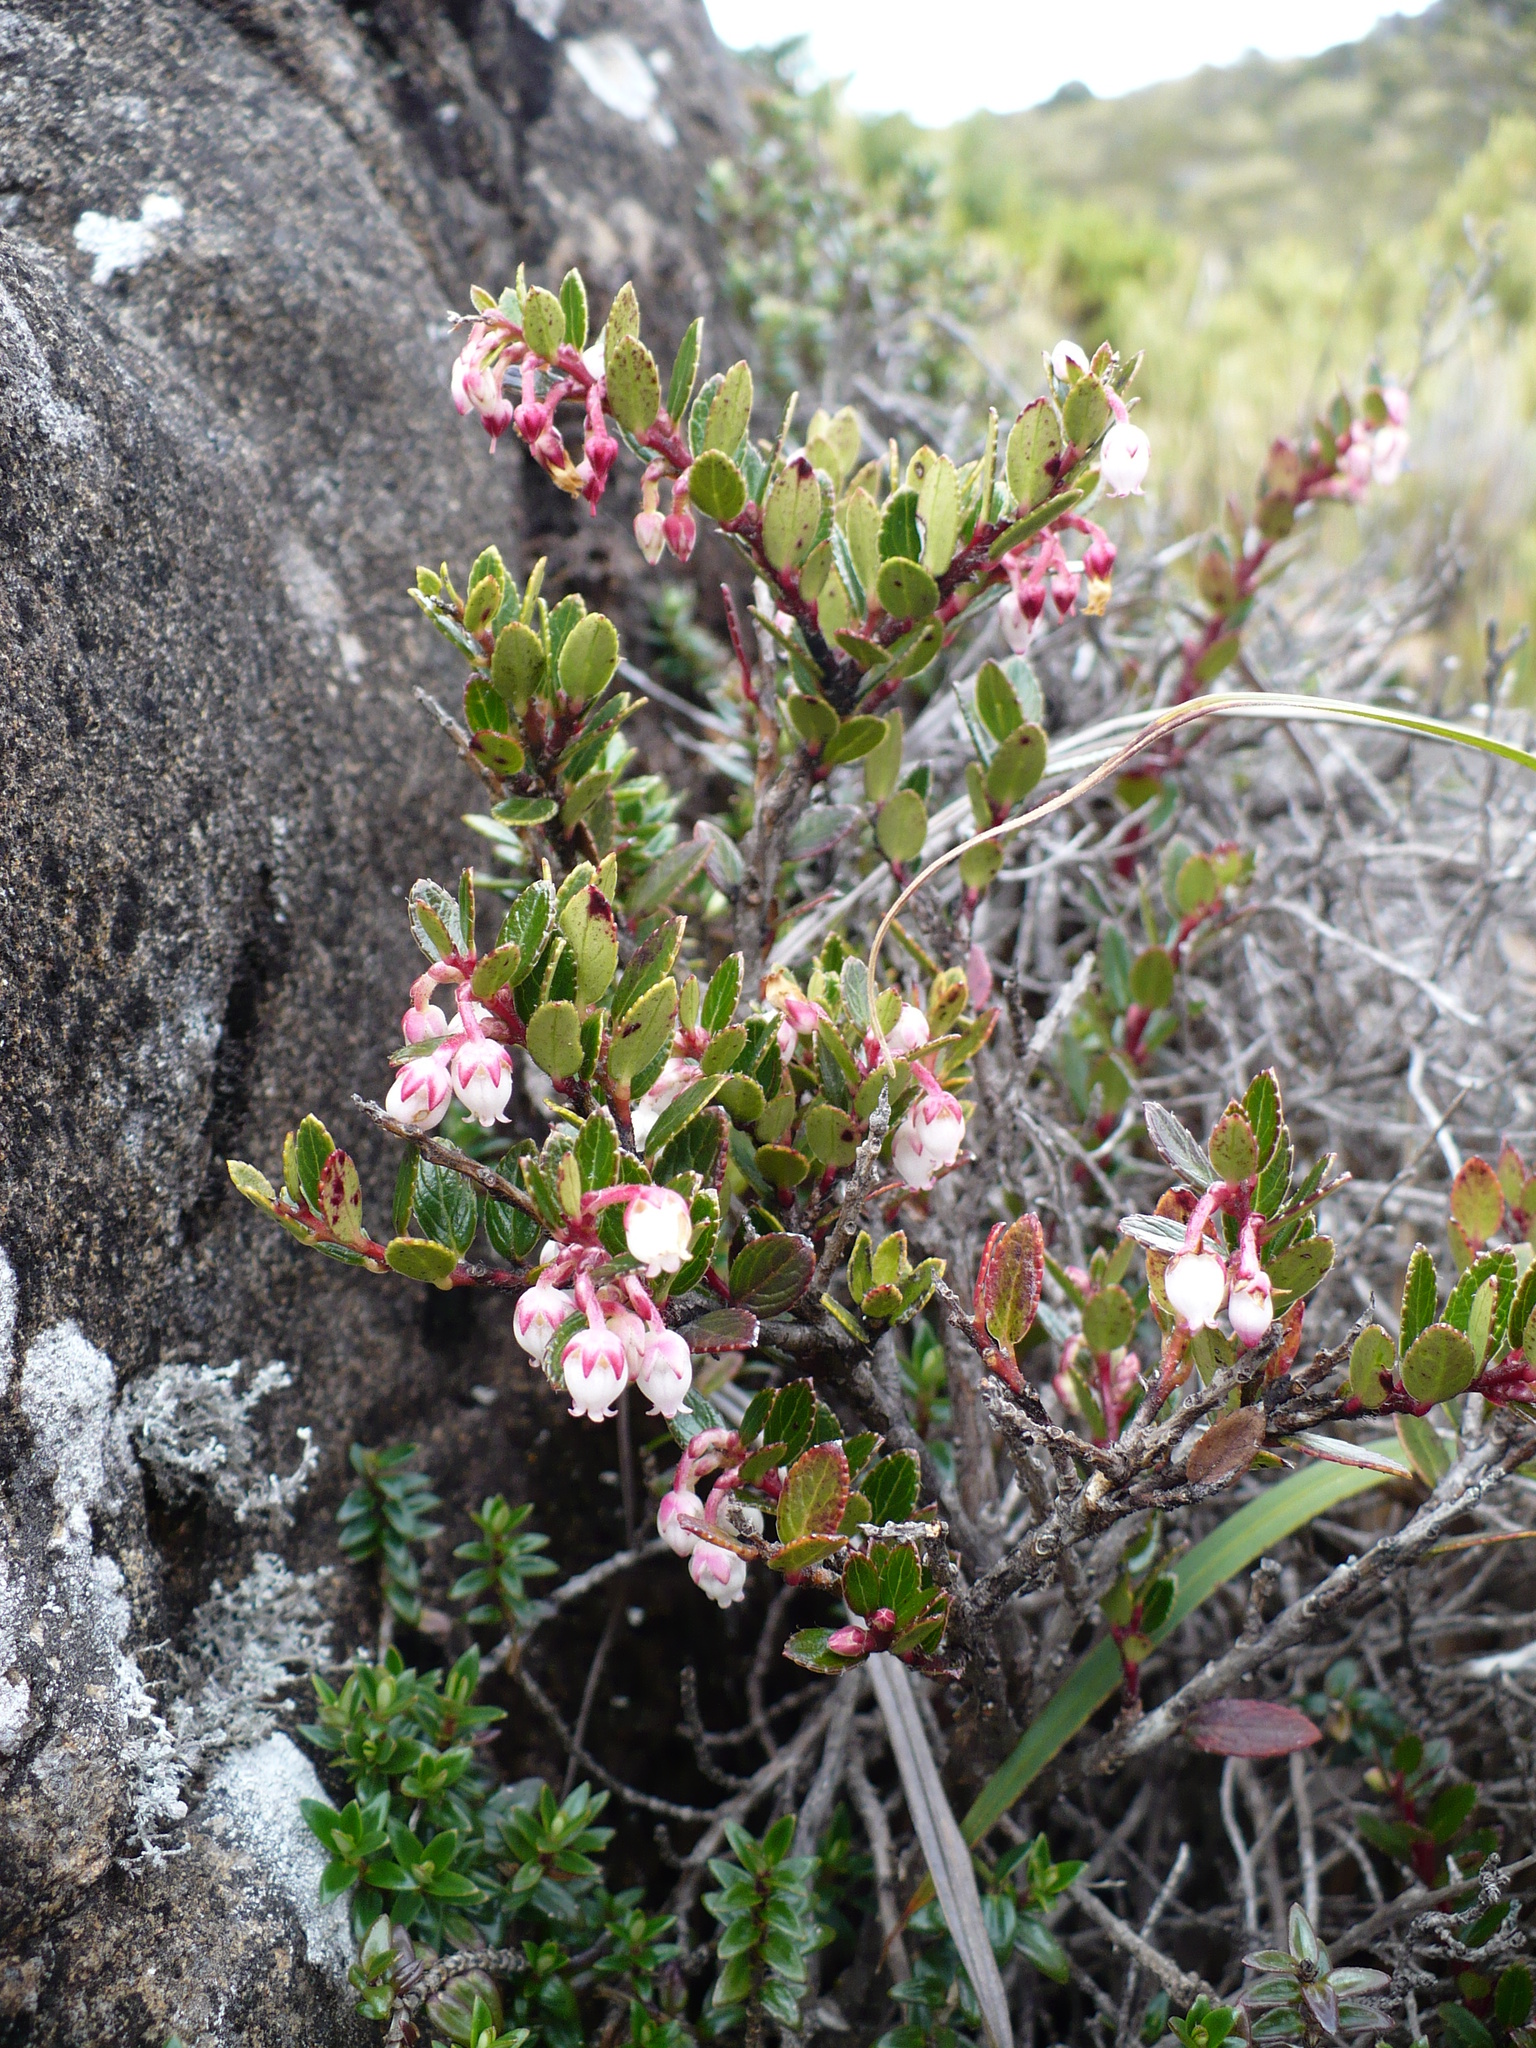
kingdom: Plantae
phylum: Tracheophyta
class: Magnoliopsida
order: Ericales
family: Ericaceae
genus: Gaultheria
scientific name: Gaultheria myrsinoides
